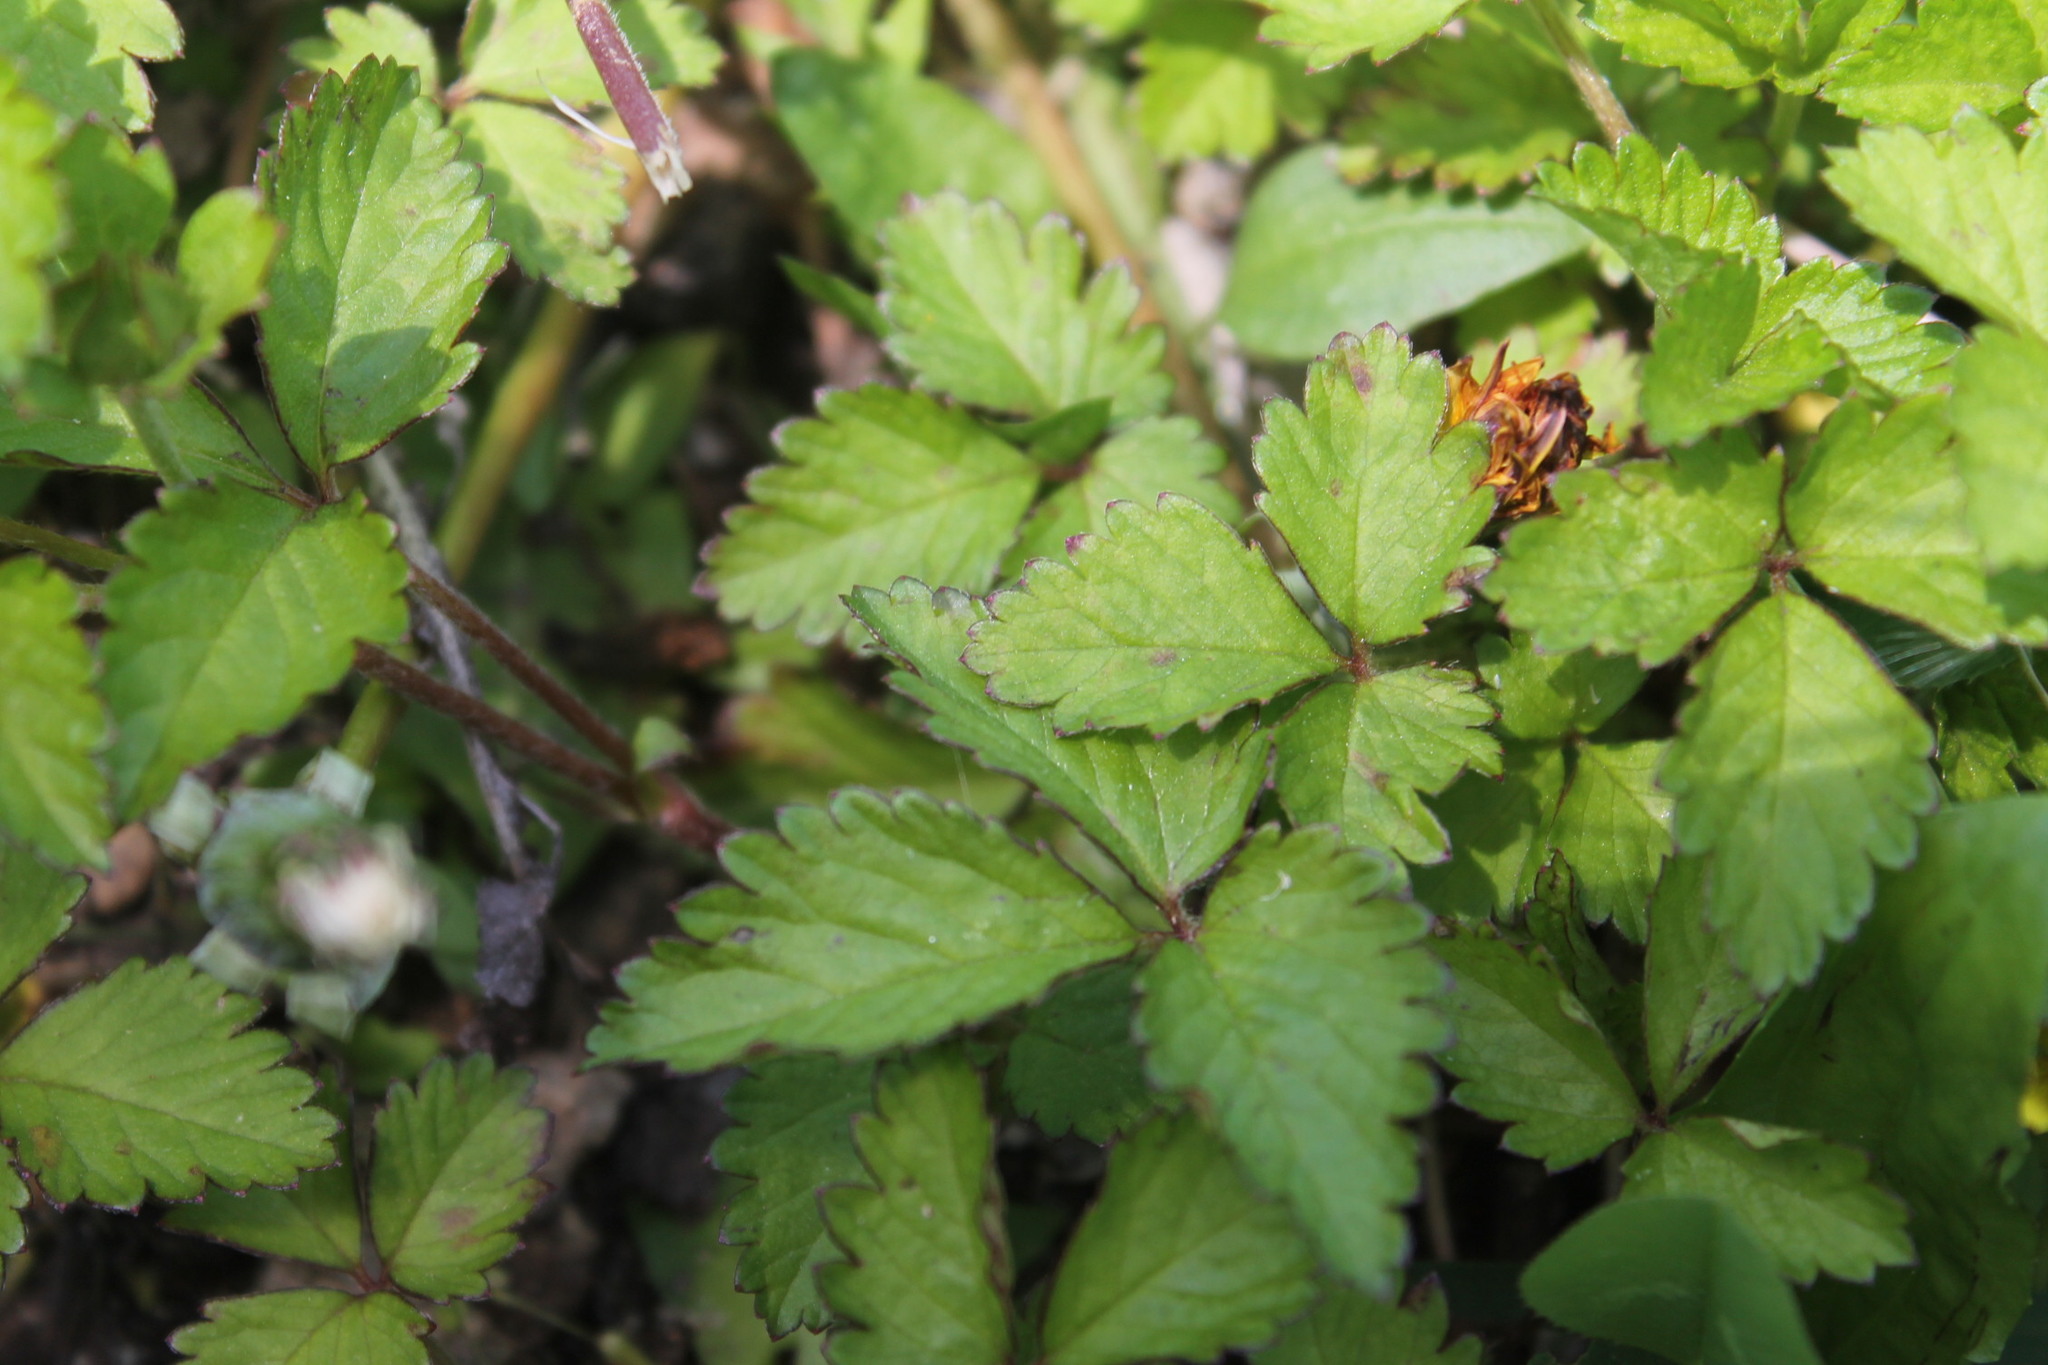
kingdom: Plantae
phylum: Tracheophyta
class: Magnoliopsida
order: Rosales
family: Rosaceae
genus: Potentilla
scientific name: Potentilla indica
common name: Yellow-flowered strawberry
